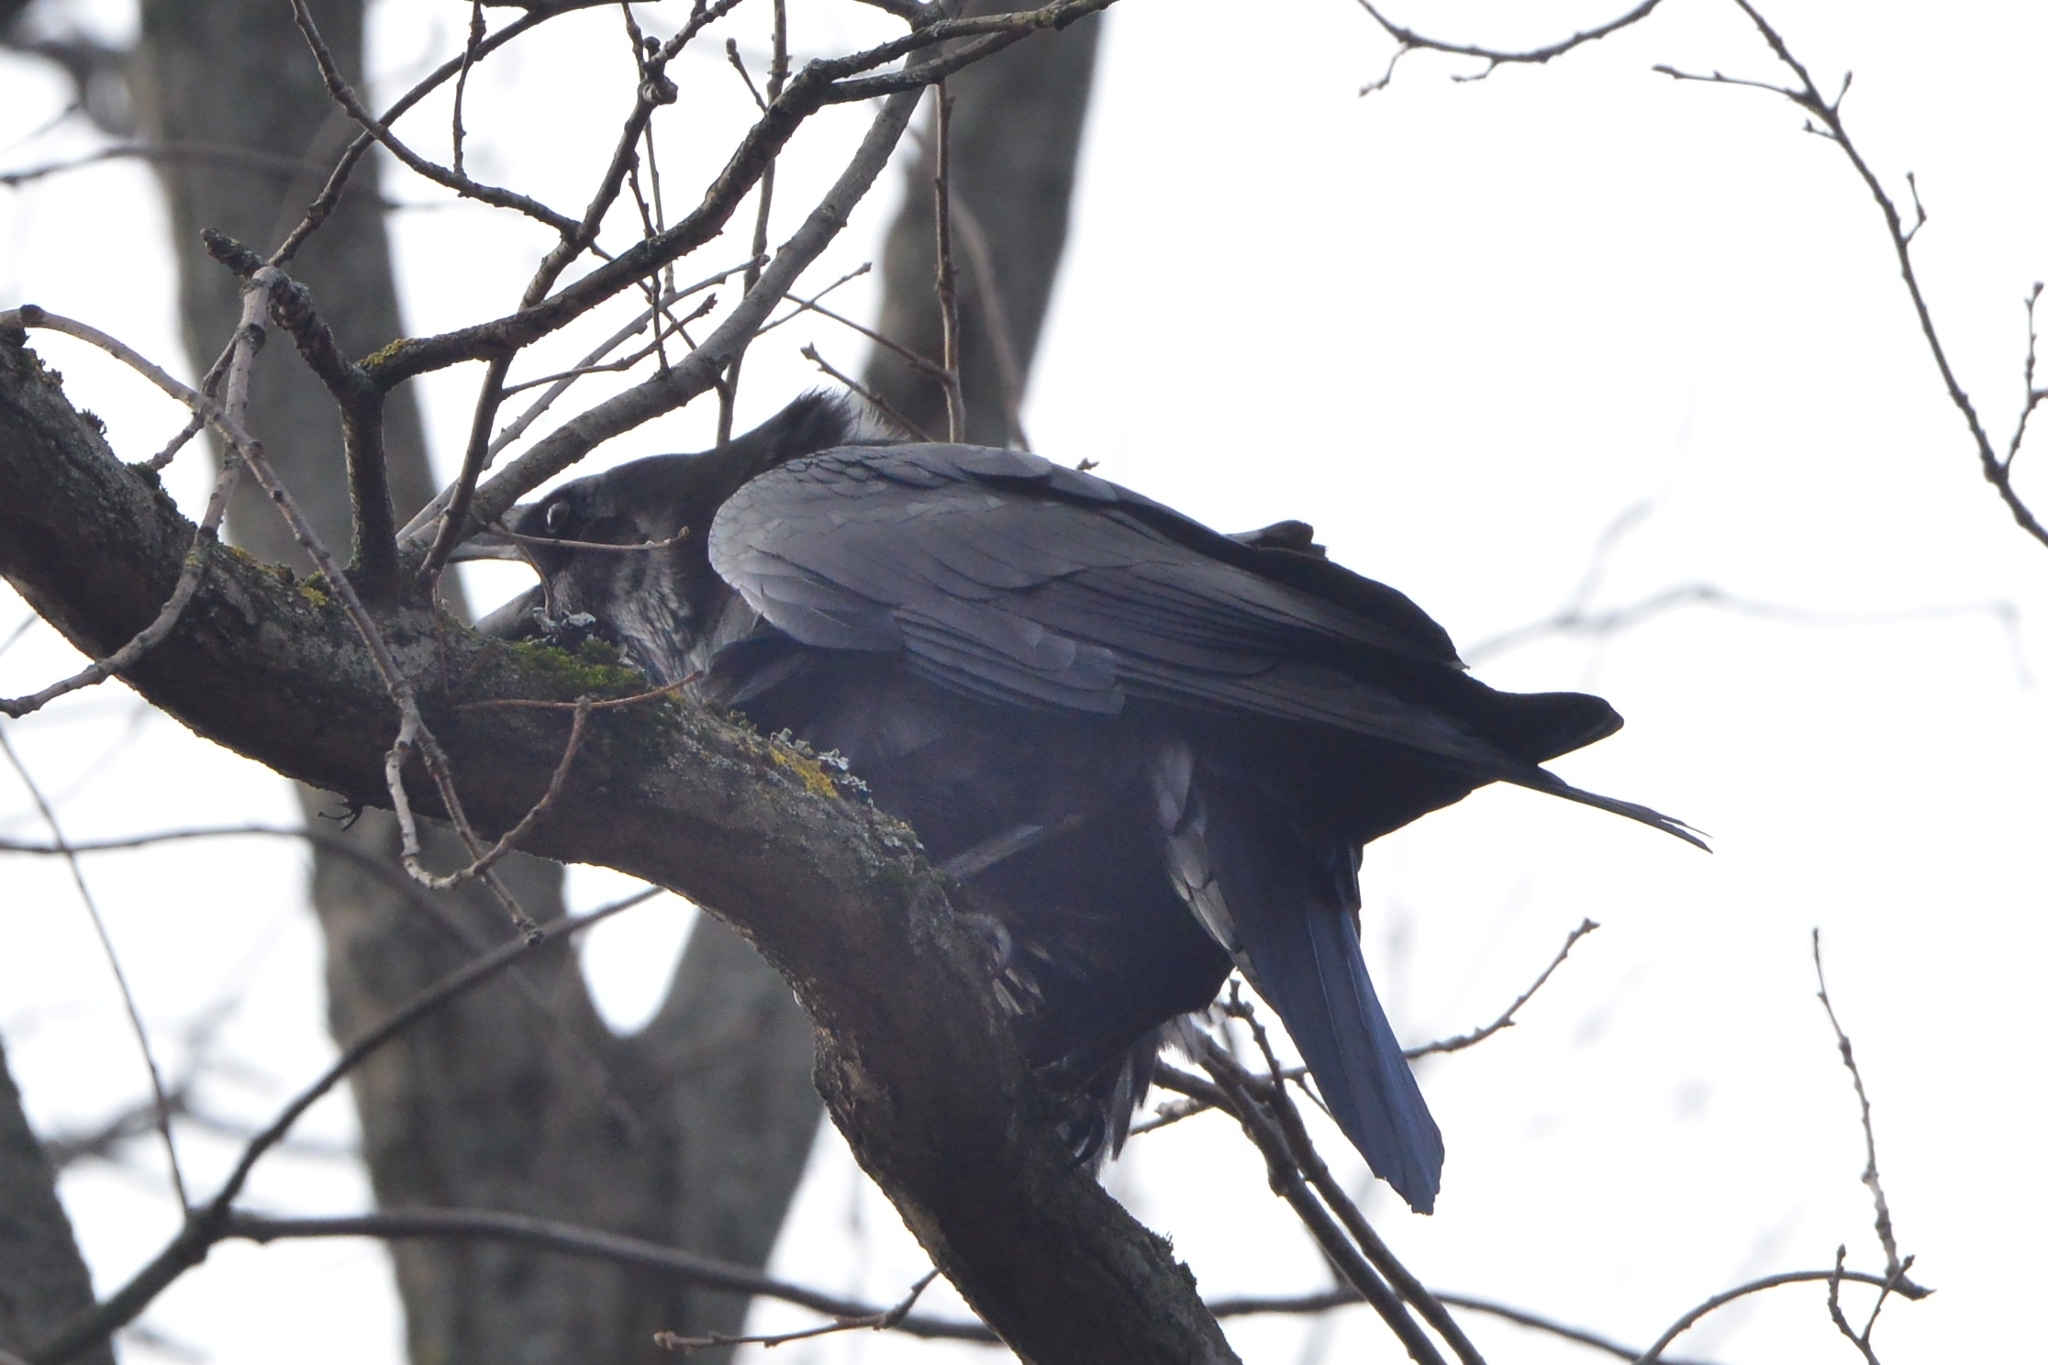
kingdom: Animalia
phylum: Chordata
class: Aves
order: Passeriformes
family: Corvidae
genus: Corvus
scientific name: Corvus corax
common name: Common raven
